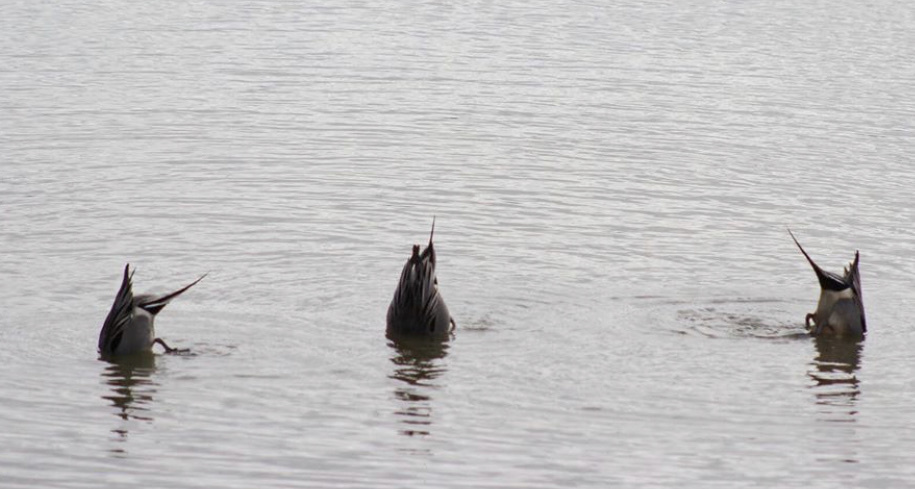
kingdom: Animalia
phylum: Chordata
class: Aves
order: Anseriformes
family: Anatidae
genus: Anas
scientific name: Anas acuta
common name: Northern pintail
